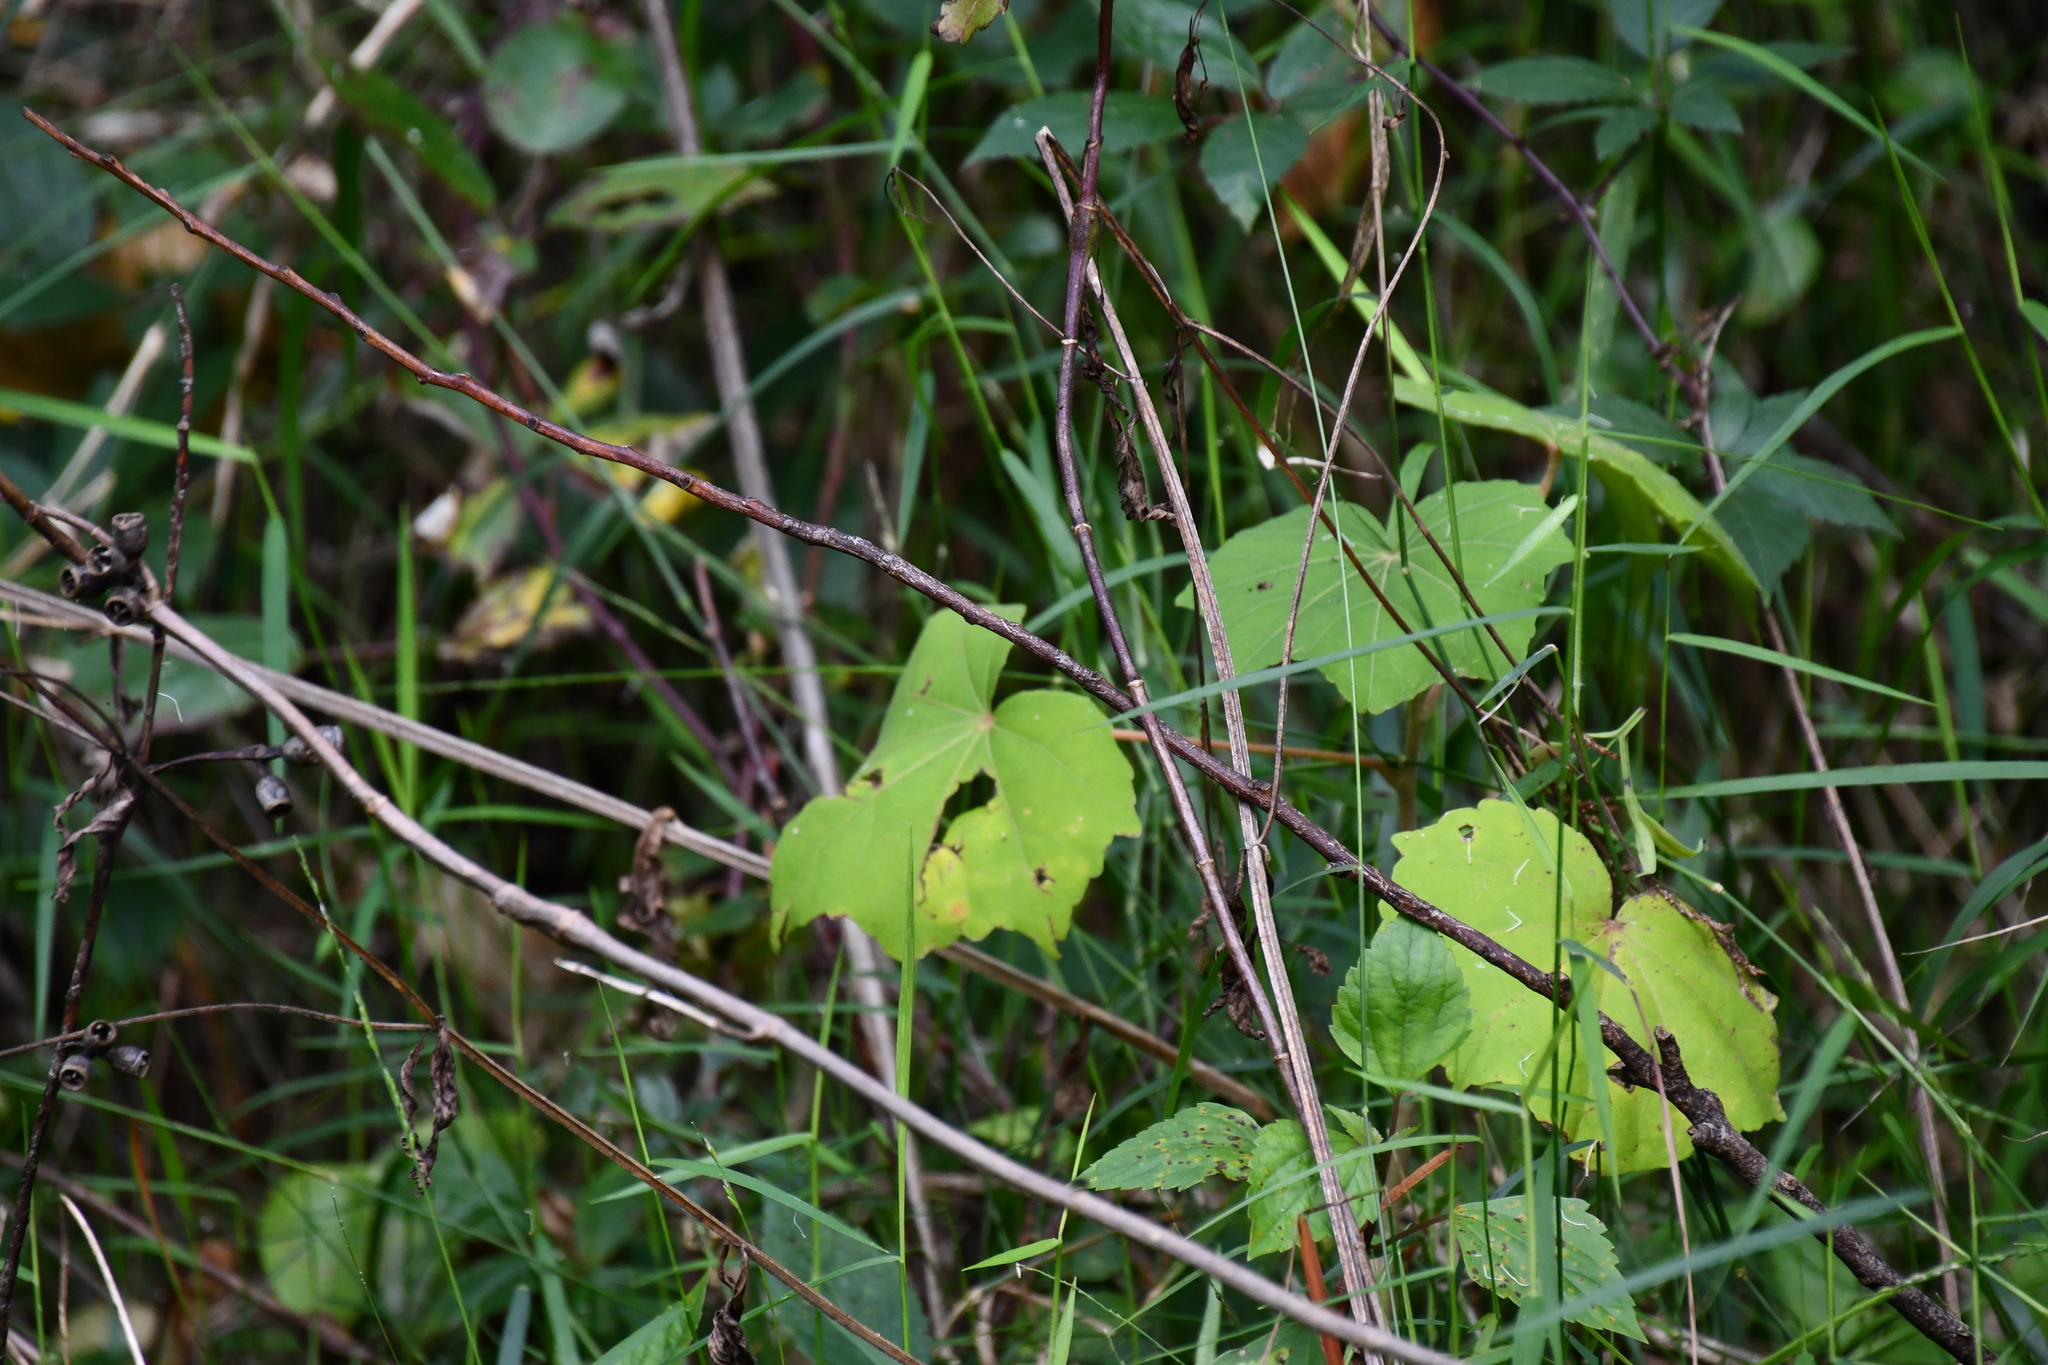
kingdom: Plantae
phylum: Tracheophyta
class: Magnoliopsida
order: Malvales
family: Malvaceae
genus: Hibiscus
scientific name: Hibiscus mutabilis
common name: Dixie rosemallow
